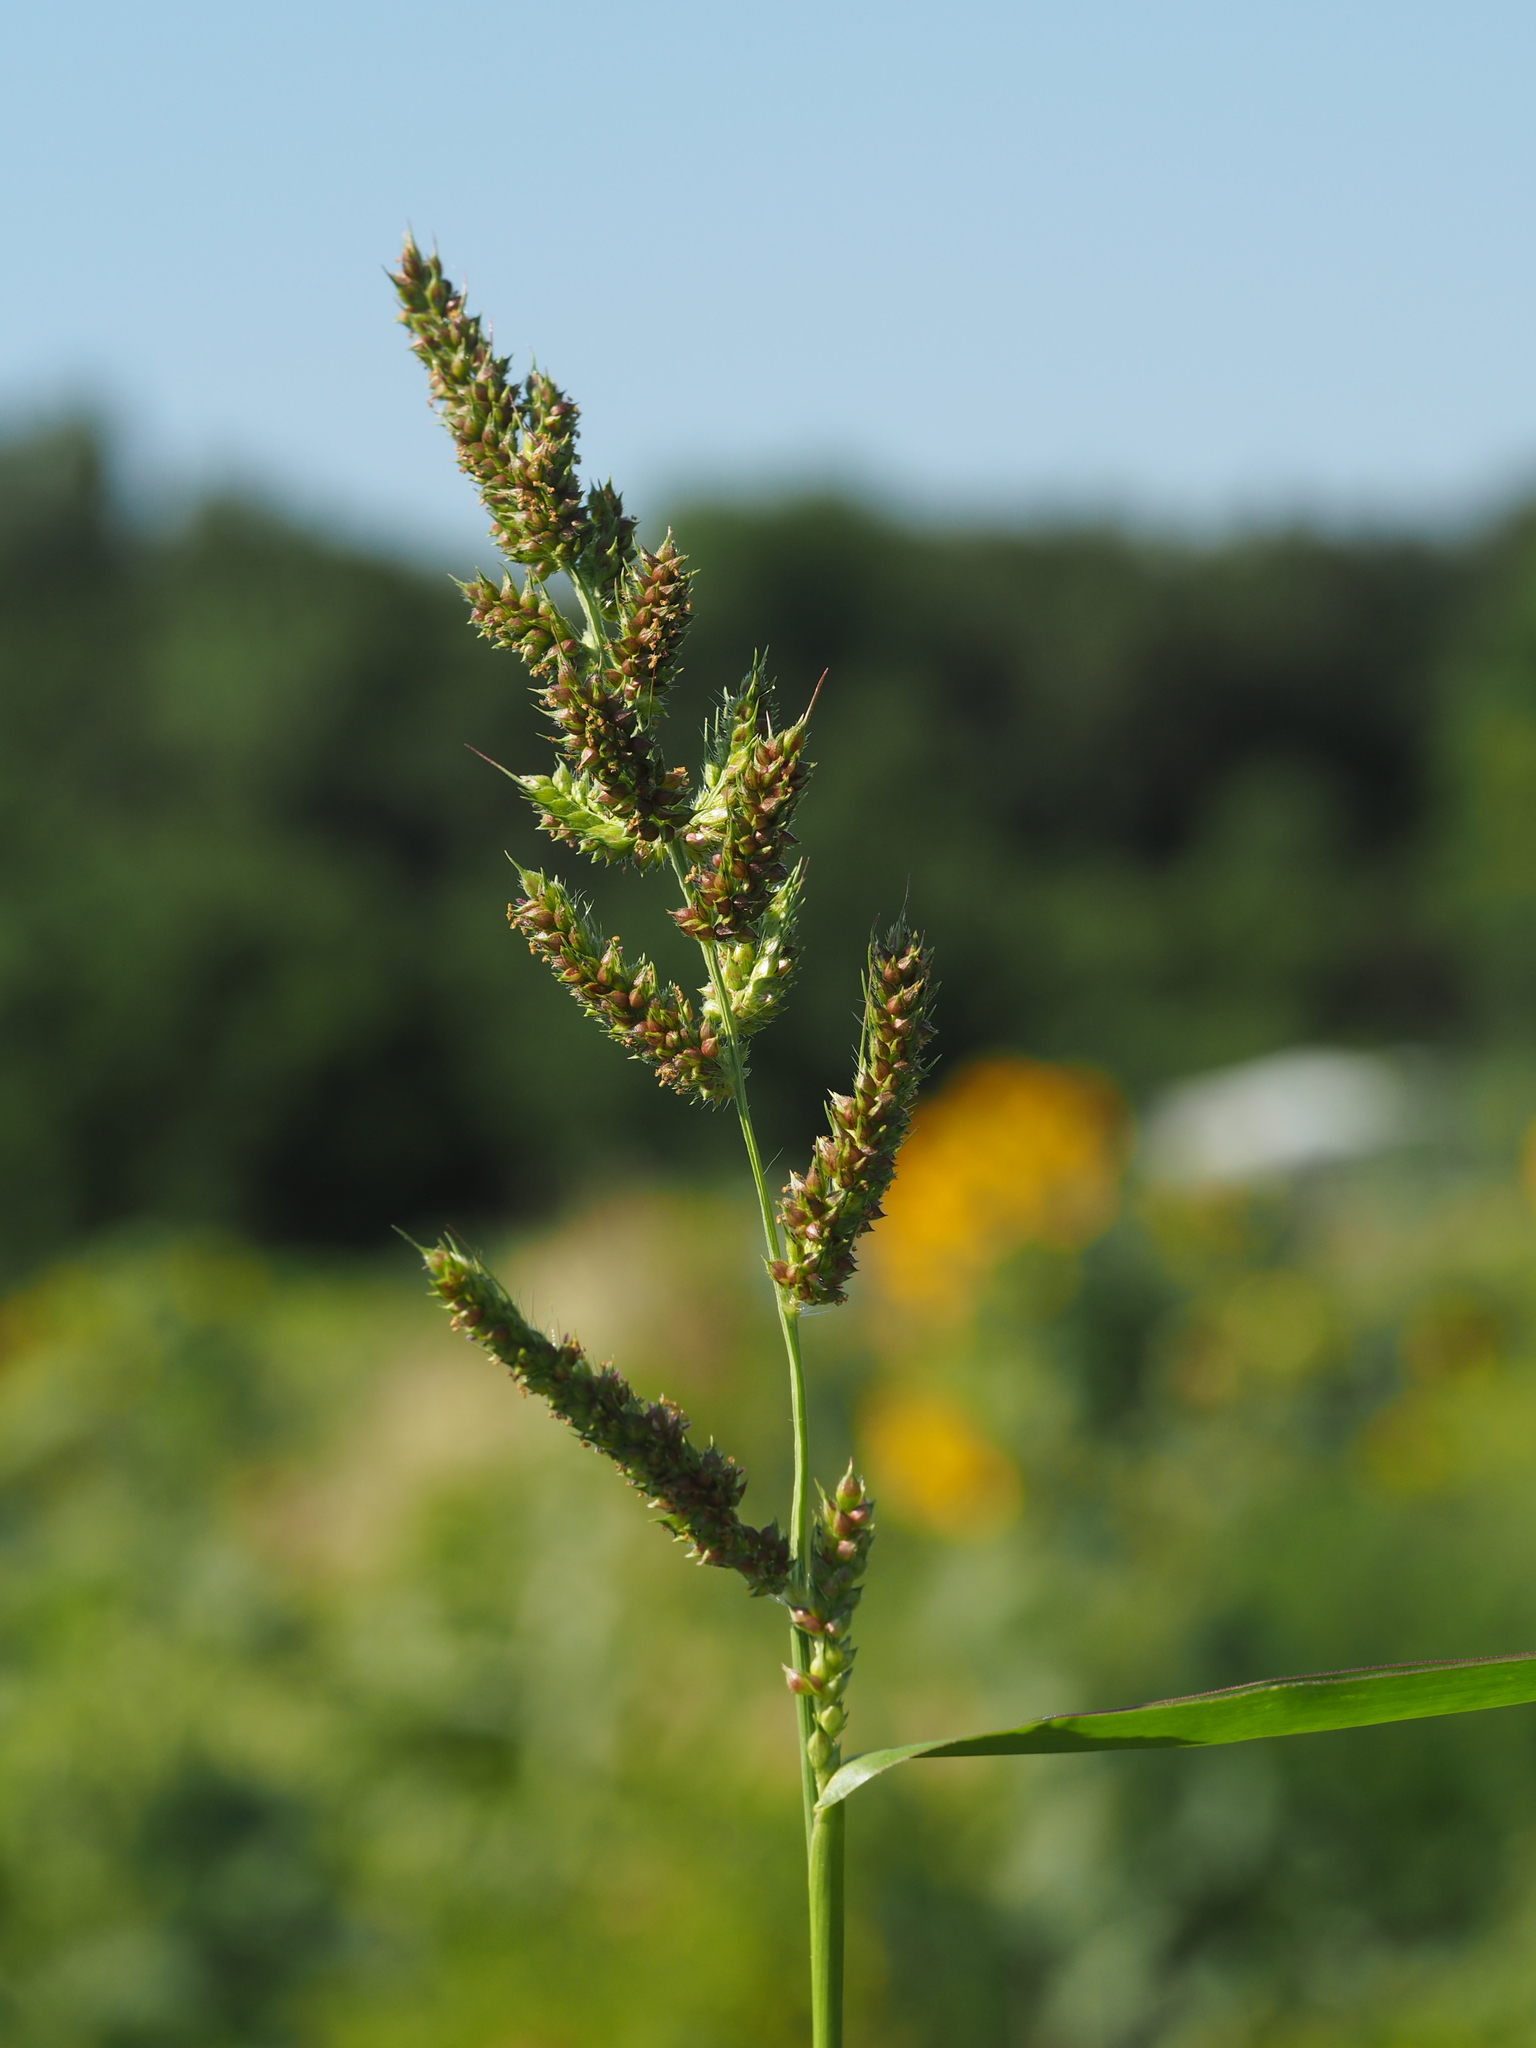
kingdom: Plantae
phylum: Tracheophyta
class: Liliopsida
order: Poales
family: Poaceae
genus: Echinochloa
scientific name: Echinochloa crus-galli
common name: Cockspur
